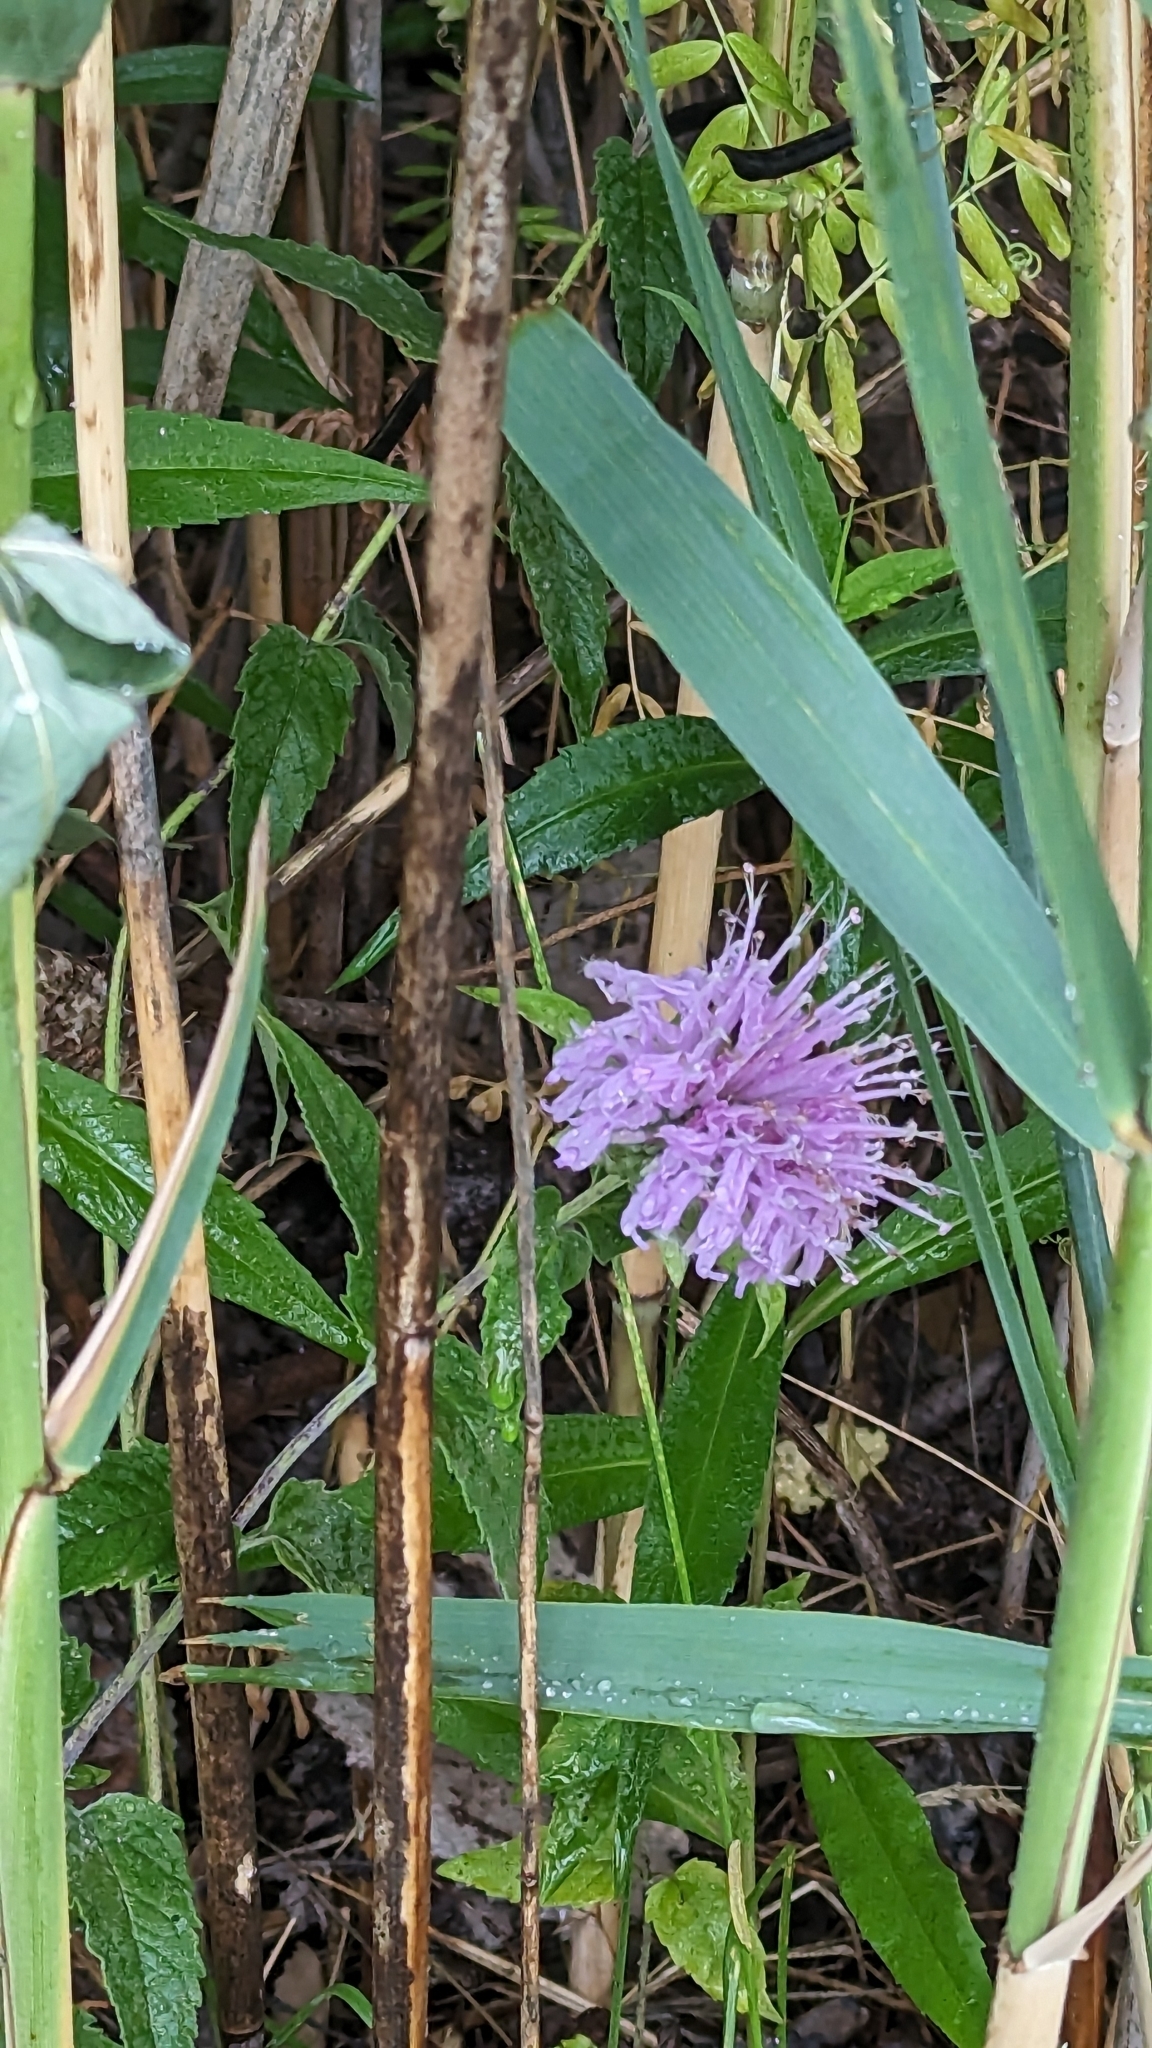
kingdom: Plantae
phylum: Tracheophyta
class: Magnoliopsida
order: Lamiales
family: Lamiaceae
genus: Monarda
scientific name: Monarda fistulosa
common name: Purple beebalm
